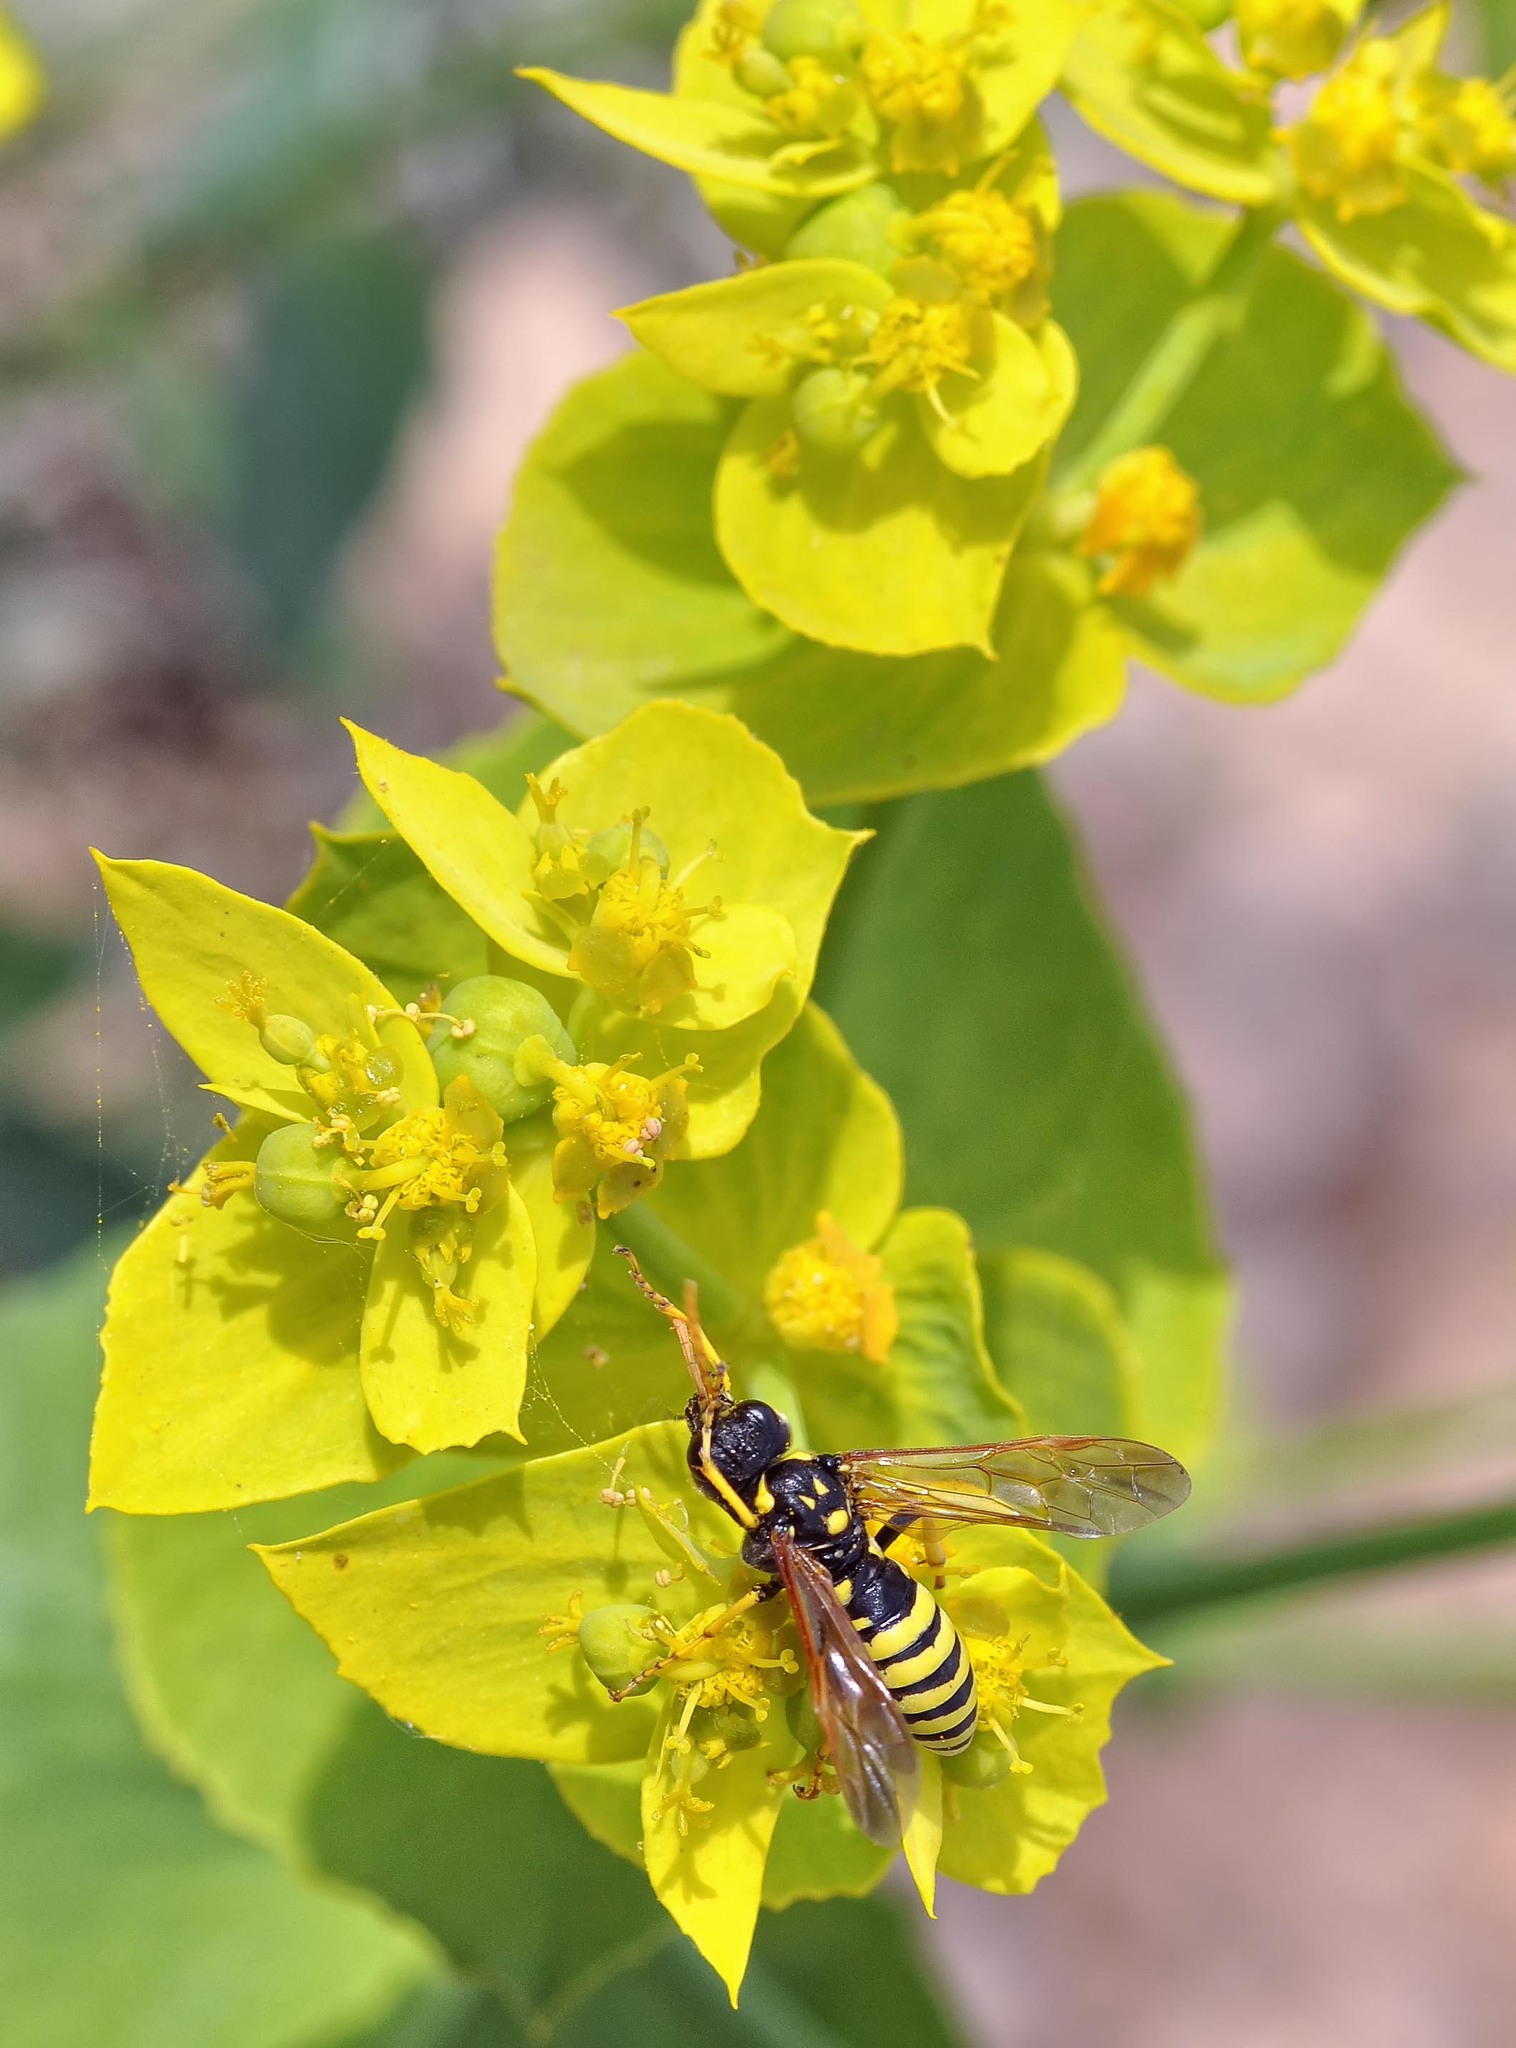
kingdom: Animalia
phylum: Arthropoda
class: Insecta
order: Hymenoptera
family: Tenthredinidae
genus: Tenthredo
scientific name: Tenthredo meridiana
